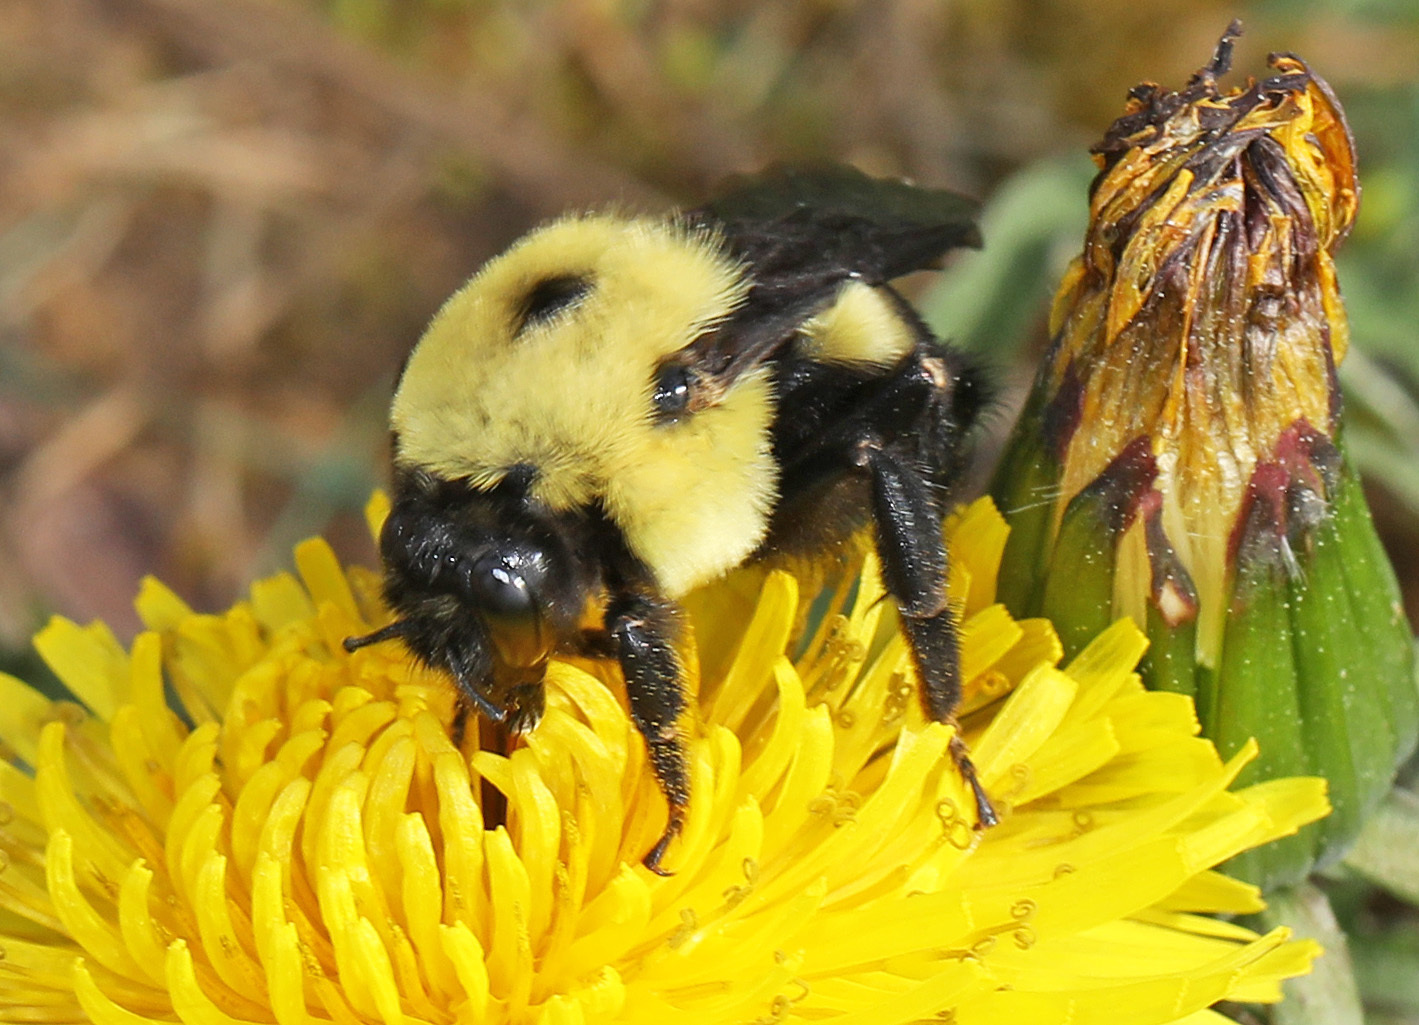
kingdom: Animalia
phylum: Arthropoda
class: Insecta
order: Hymenoptera
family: Apidae
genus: Bombus
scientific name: Bombus griseocollis
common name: Brown-belted bumble bee
